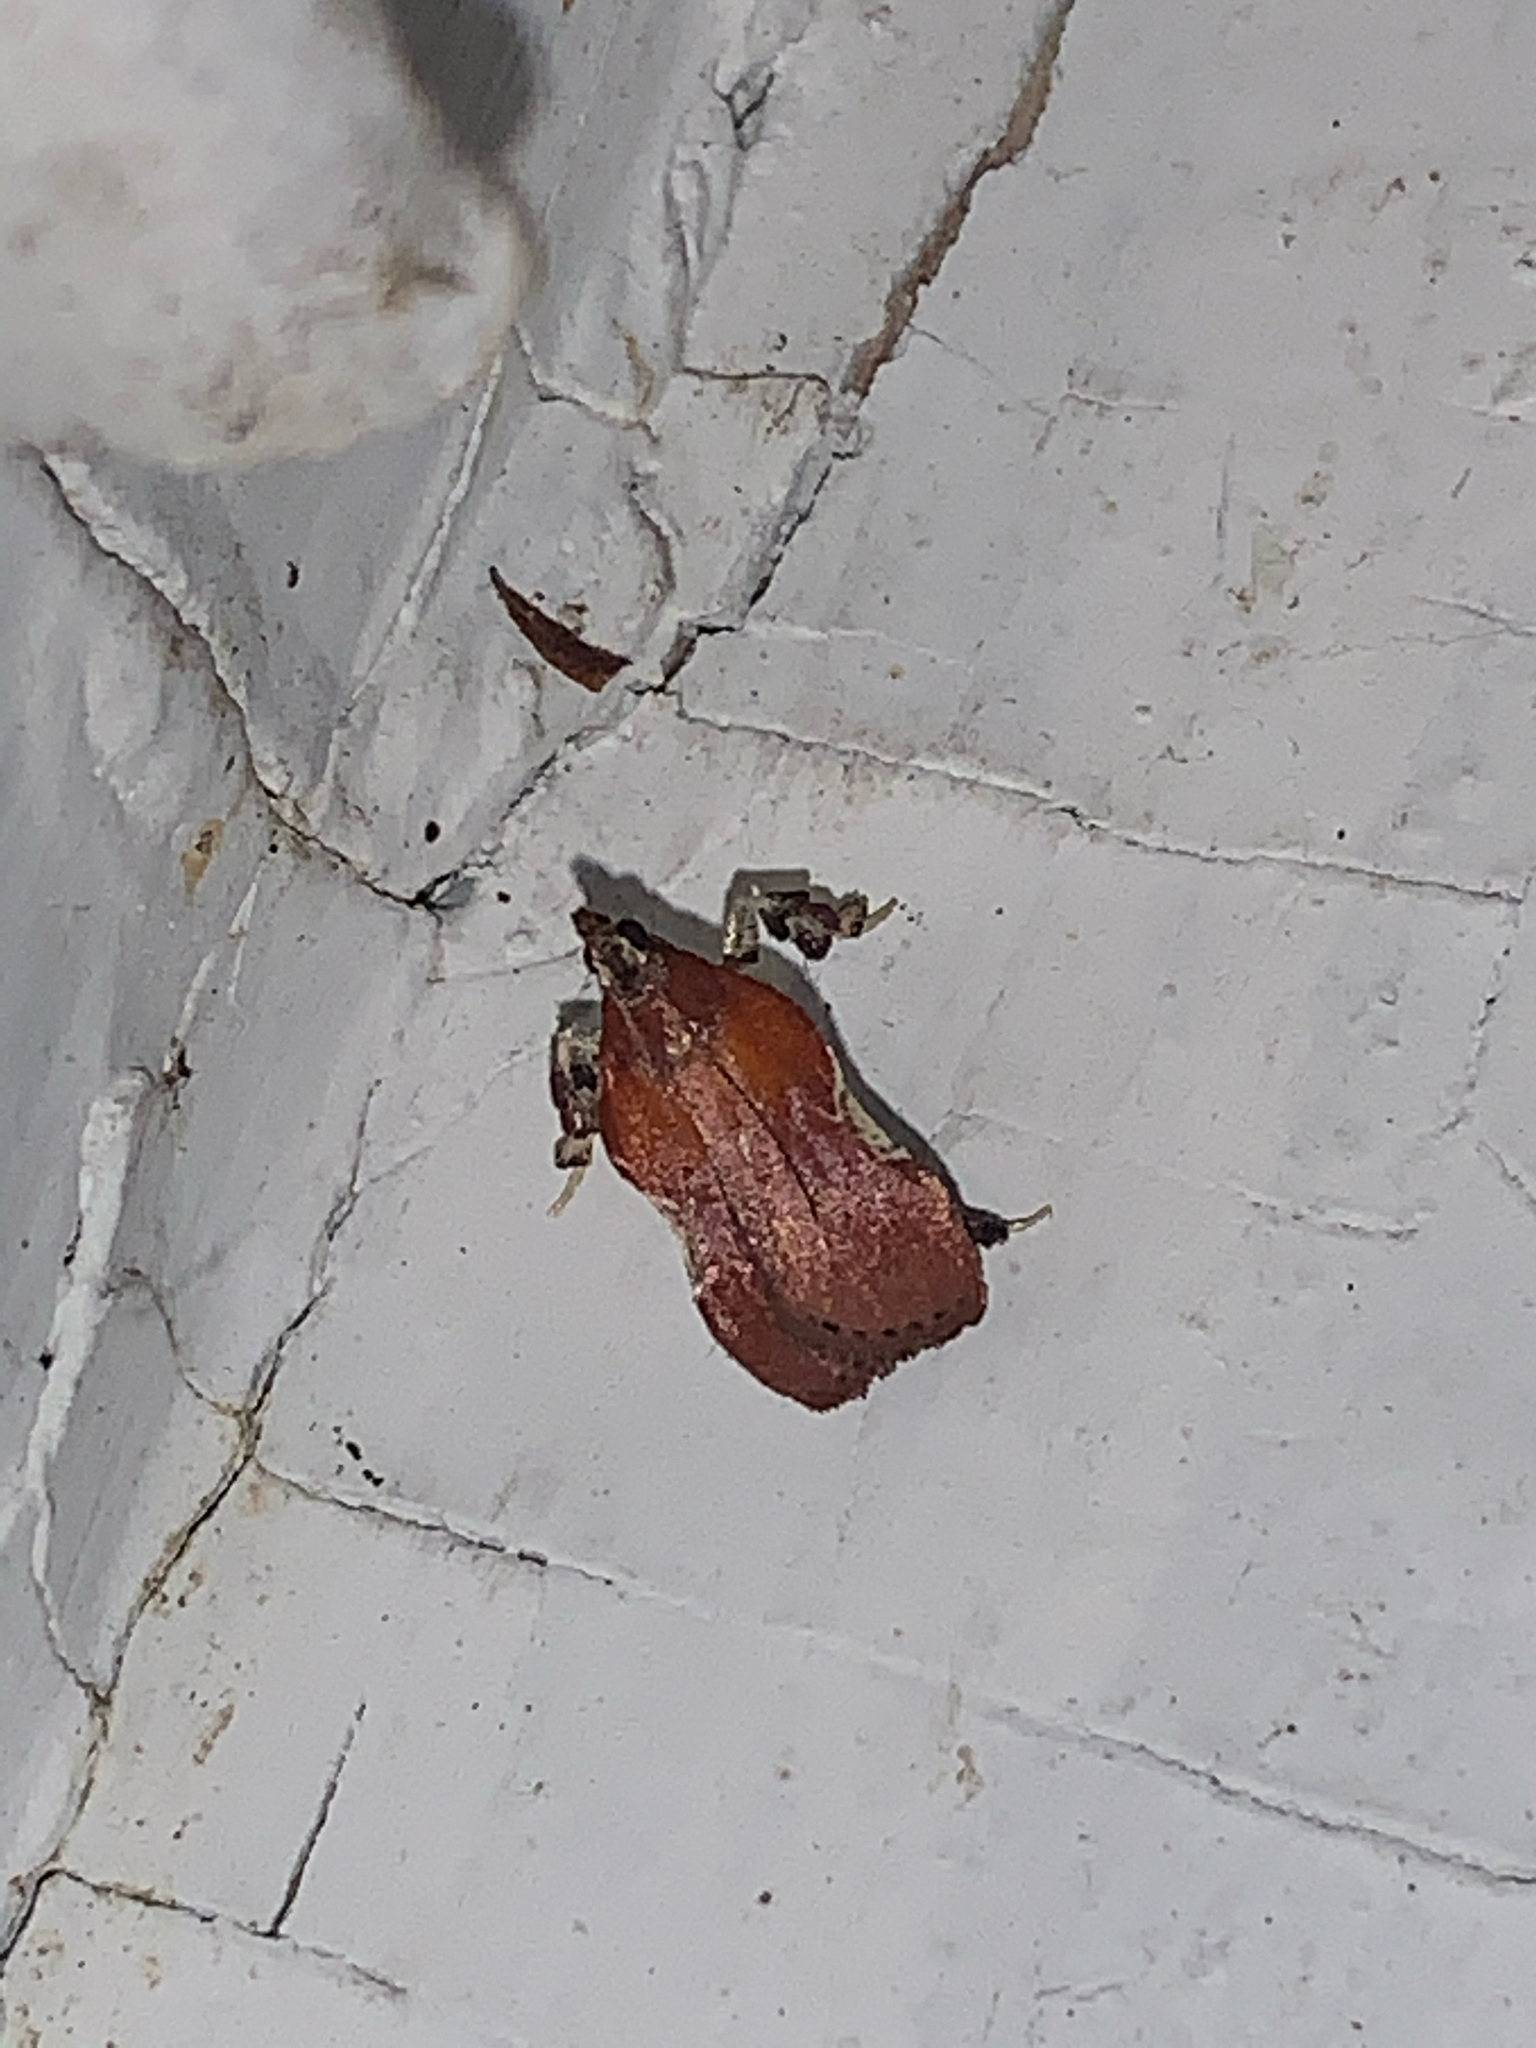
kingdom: Animalia
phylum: Arthropoda
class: Insecta
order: Lepidoptera
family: Pyralidae
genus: Galasa
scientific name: Galasa nigrinodis
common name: Boxwood leaftier moth
